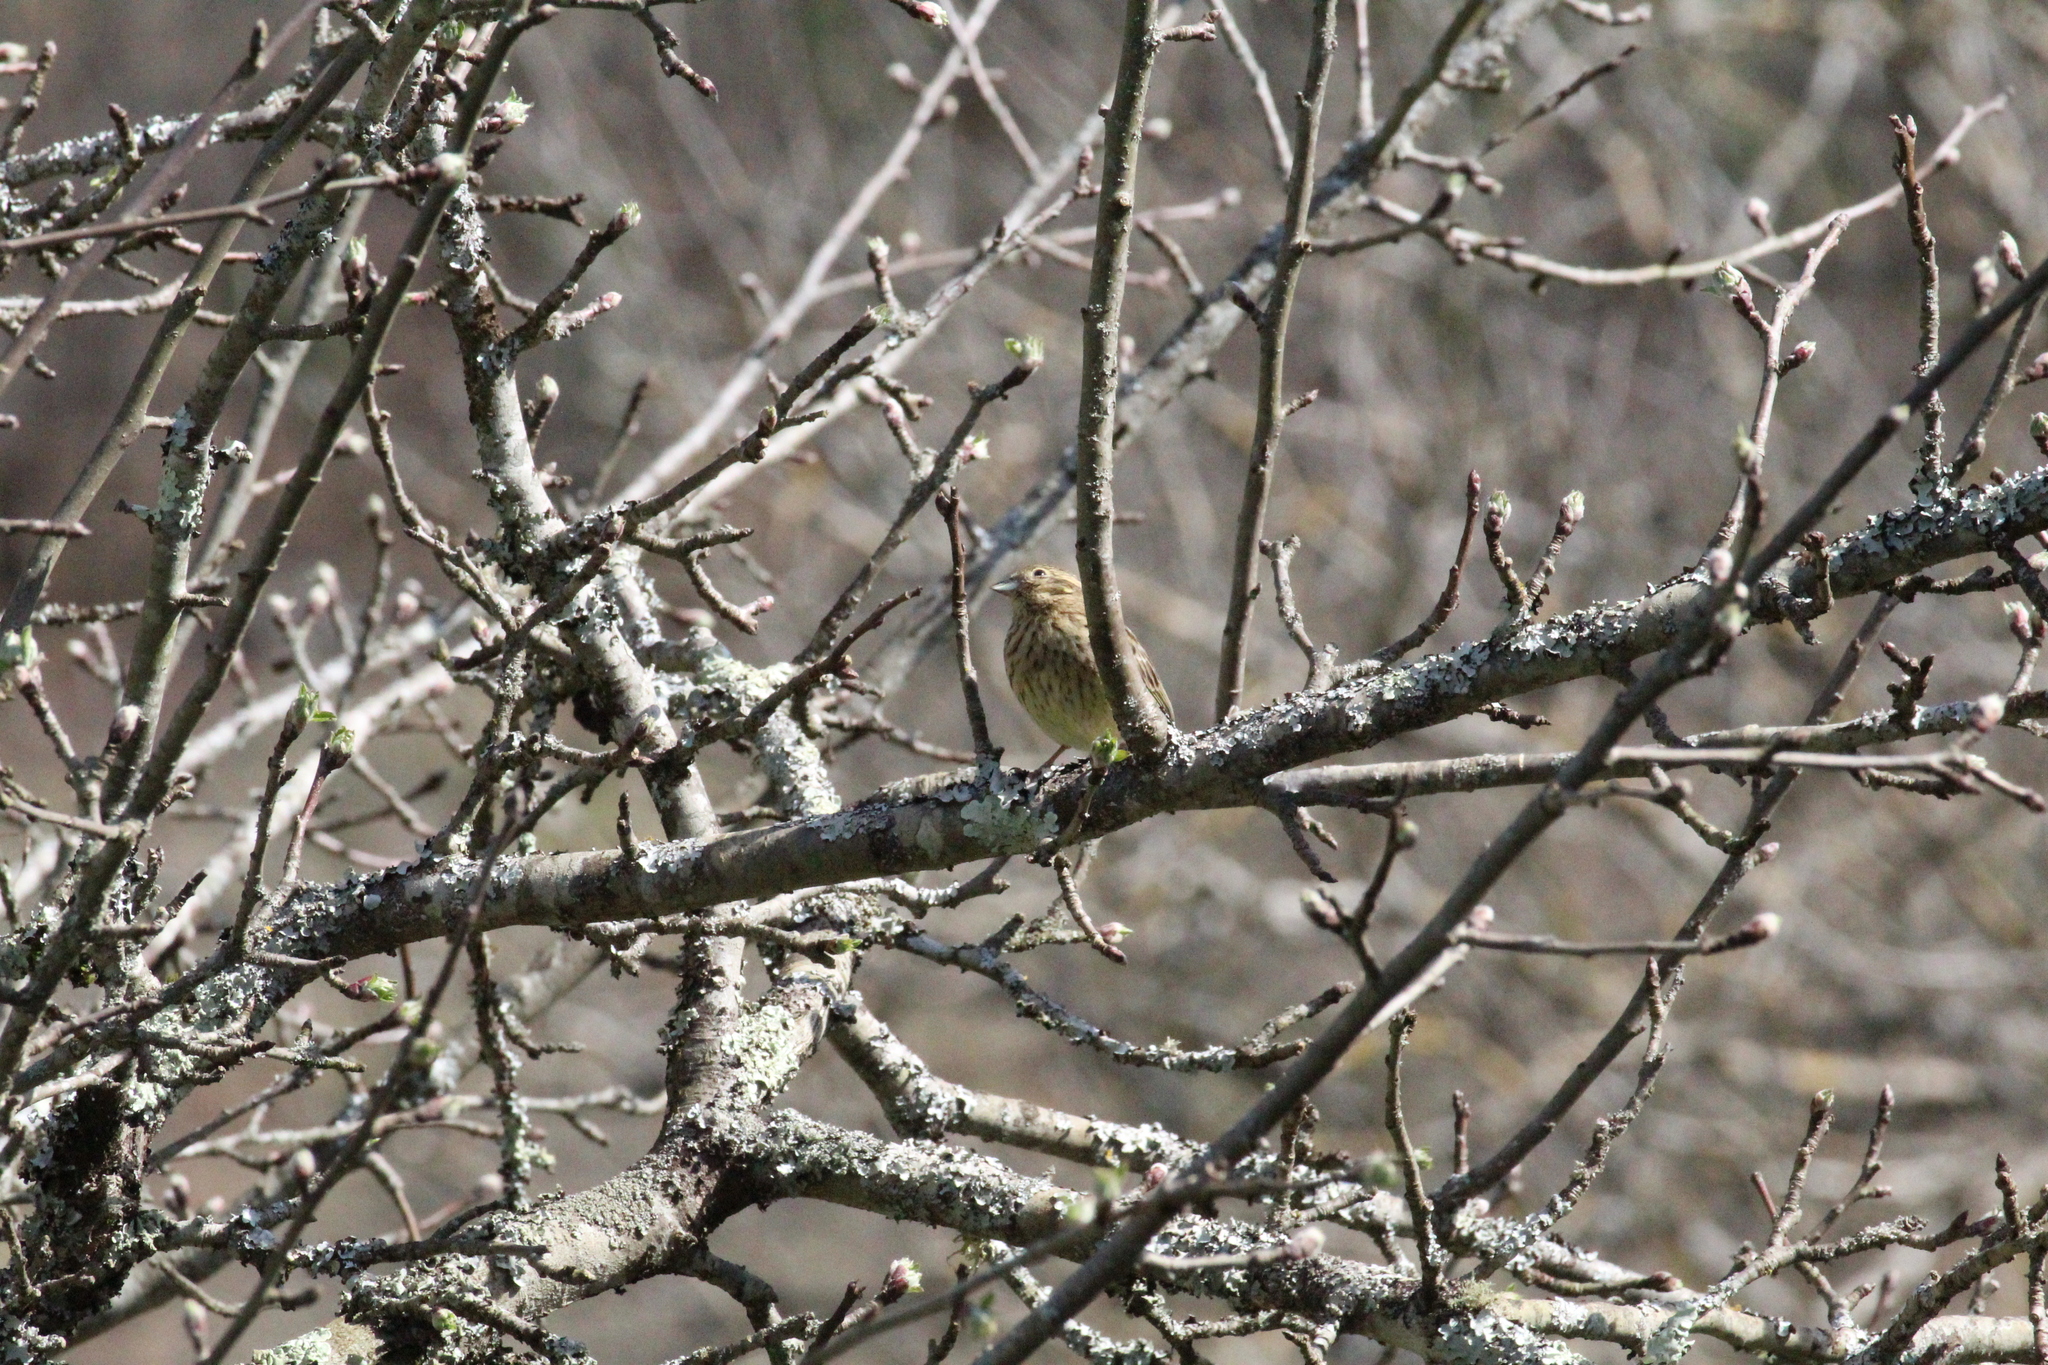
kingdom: Animalia
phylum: Chordata
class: Aves
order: Passeriformes
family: Emberizidae
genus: Emberiza
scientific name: Emberiza cirlus
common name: Cirl bunting
